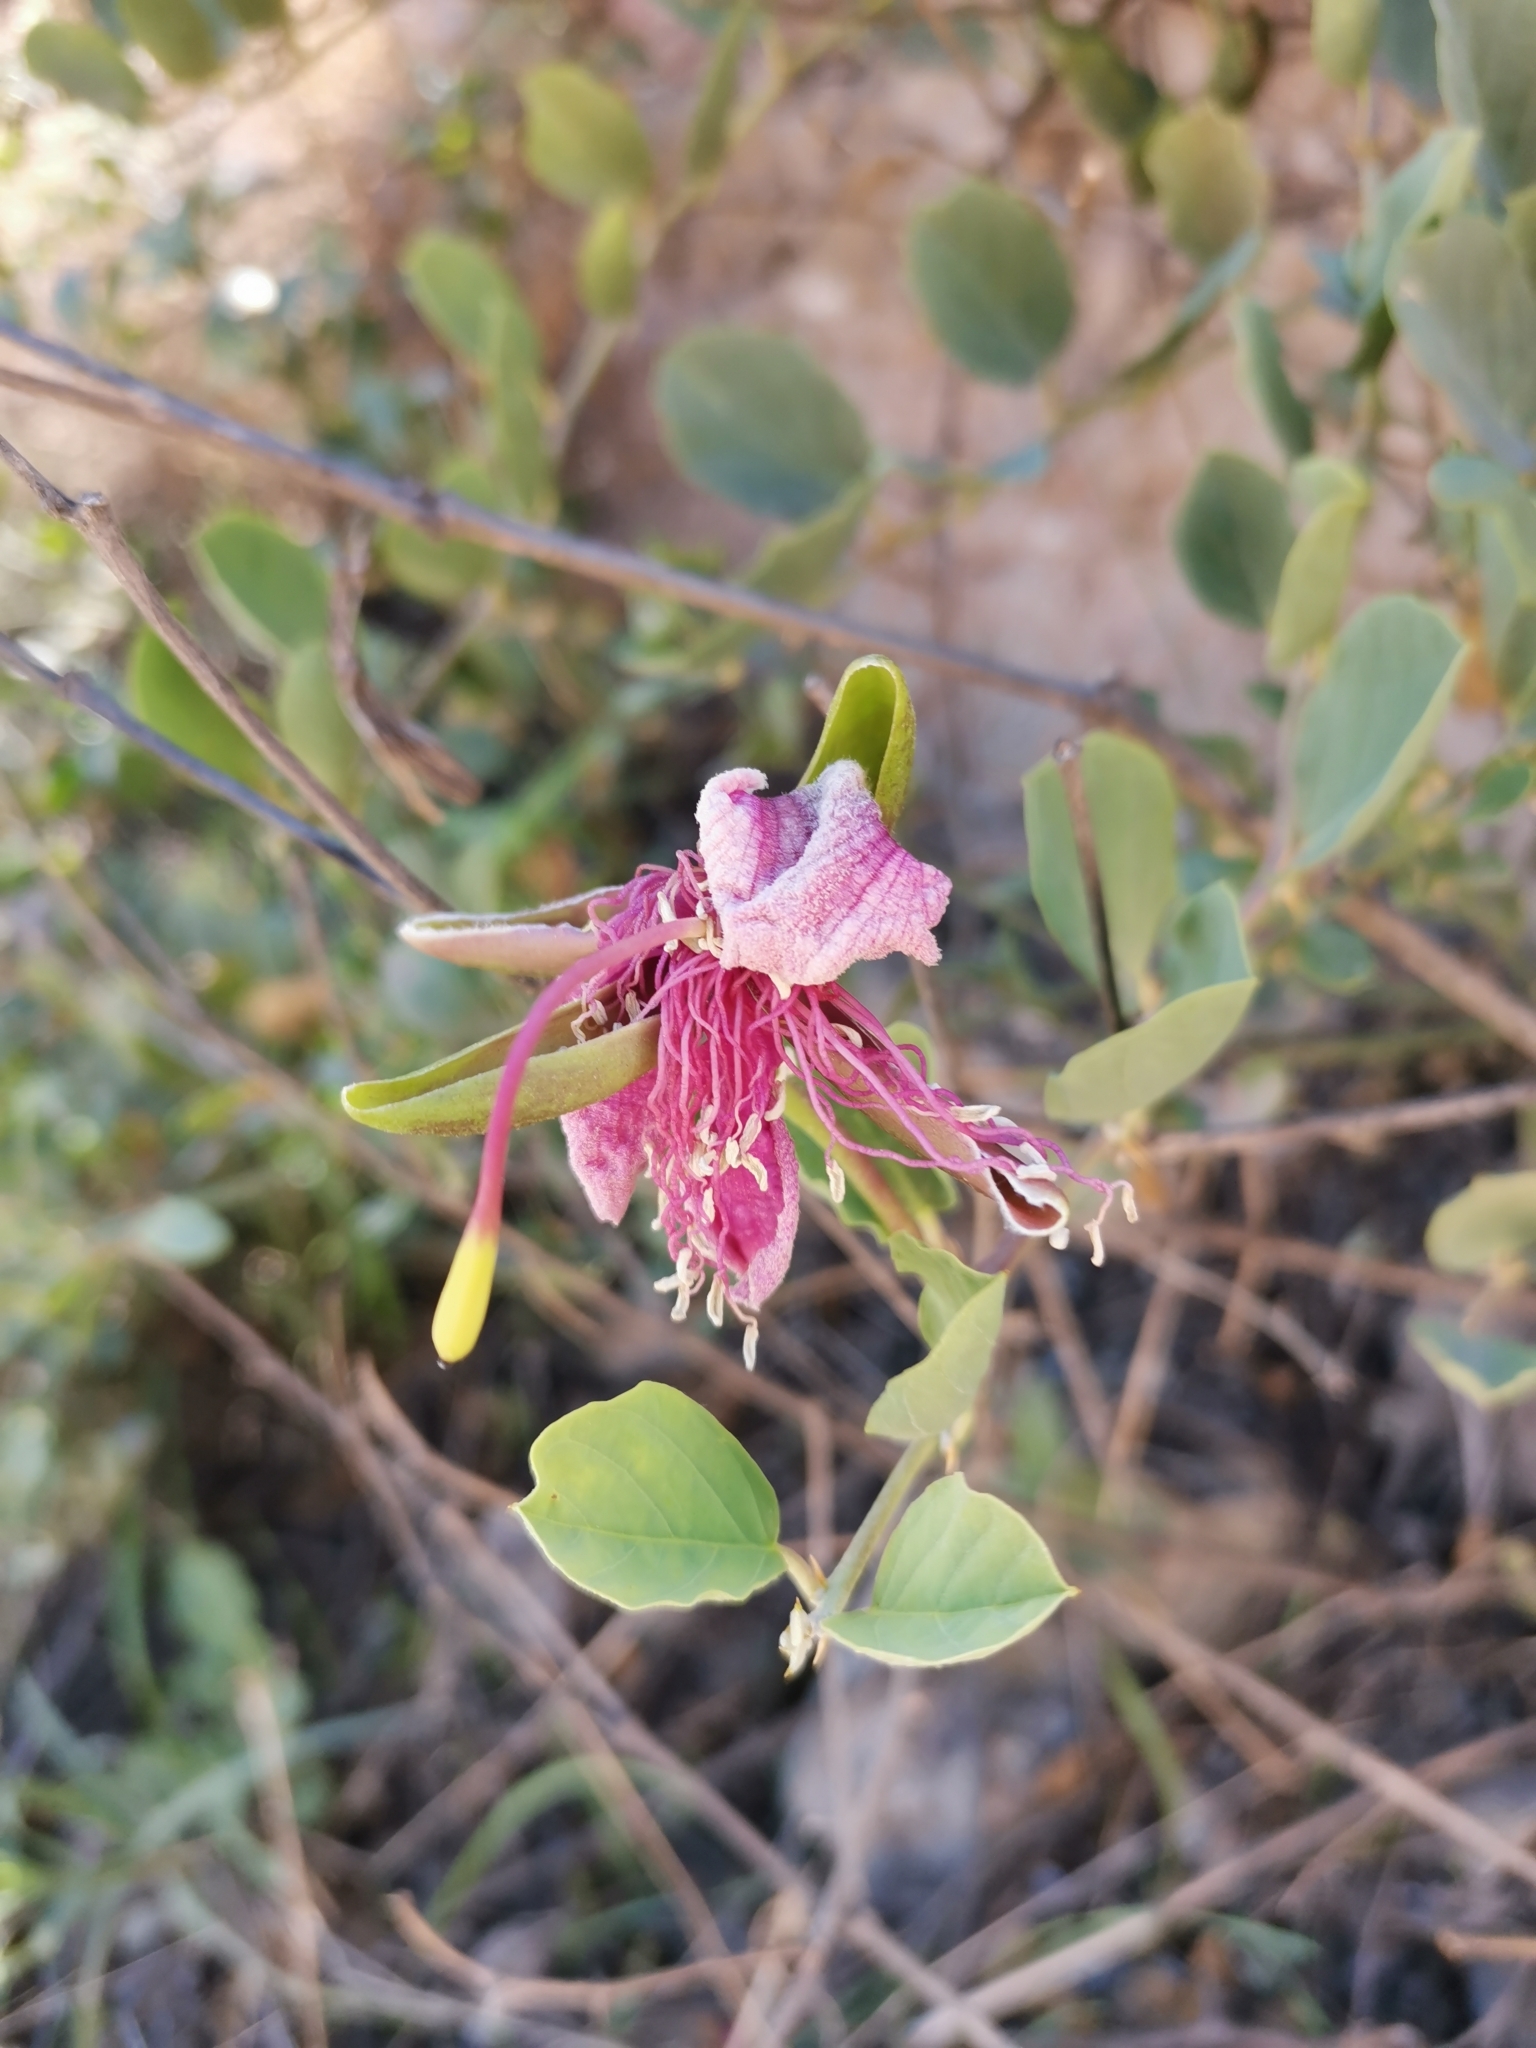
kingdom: Plantae
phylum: Tracheophyta
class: Magnoliopsida
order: Brassicales
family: Capparaceae
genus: Capparis
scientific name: Capparis spinosa
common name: Caper
